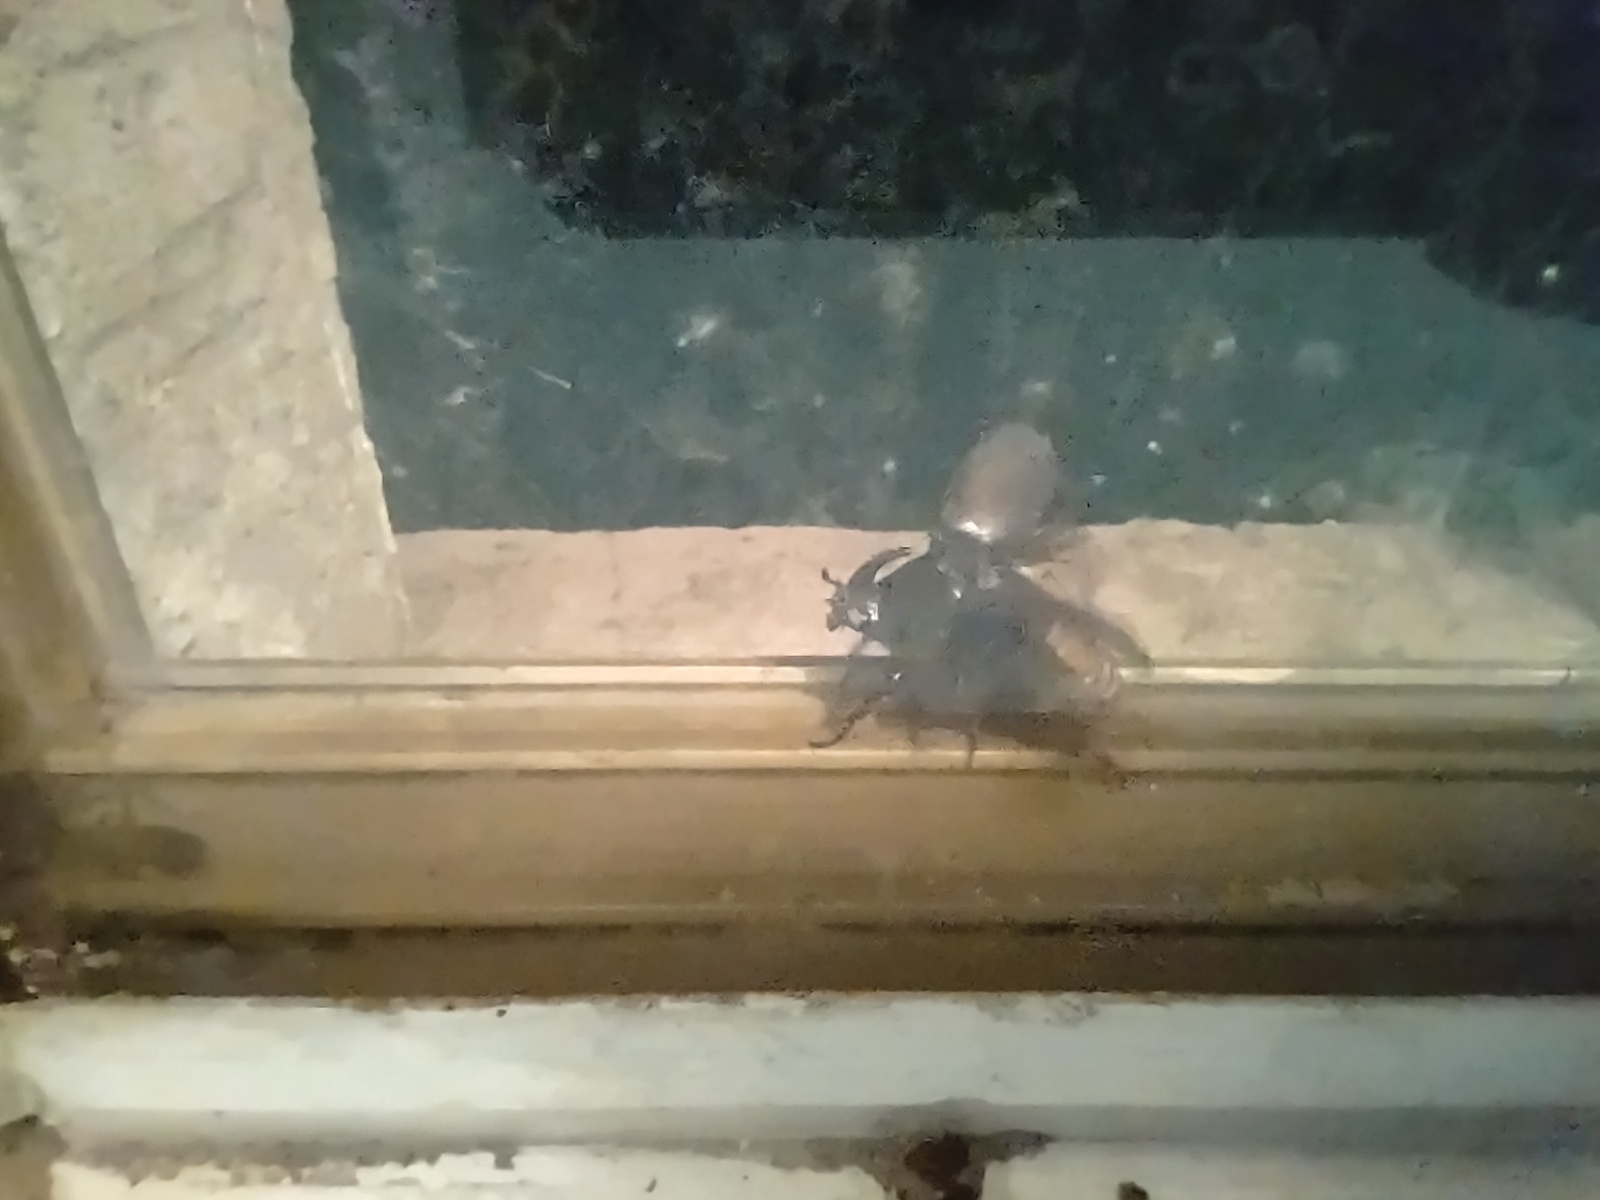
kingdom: Animalia
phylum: Arthropoda
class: Insecta
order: Coleoptera
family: Scarabaeidae
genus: Oryctes
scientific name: Oryctes nasicornis
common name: European rhinoceros beetle
